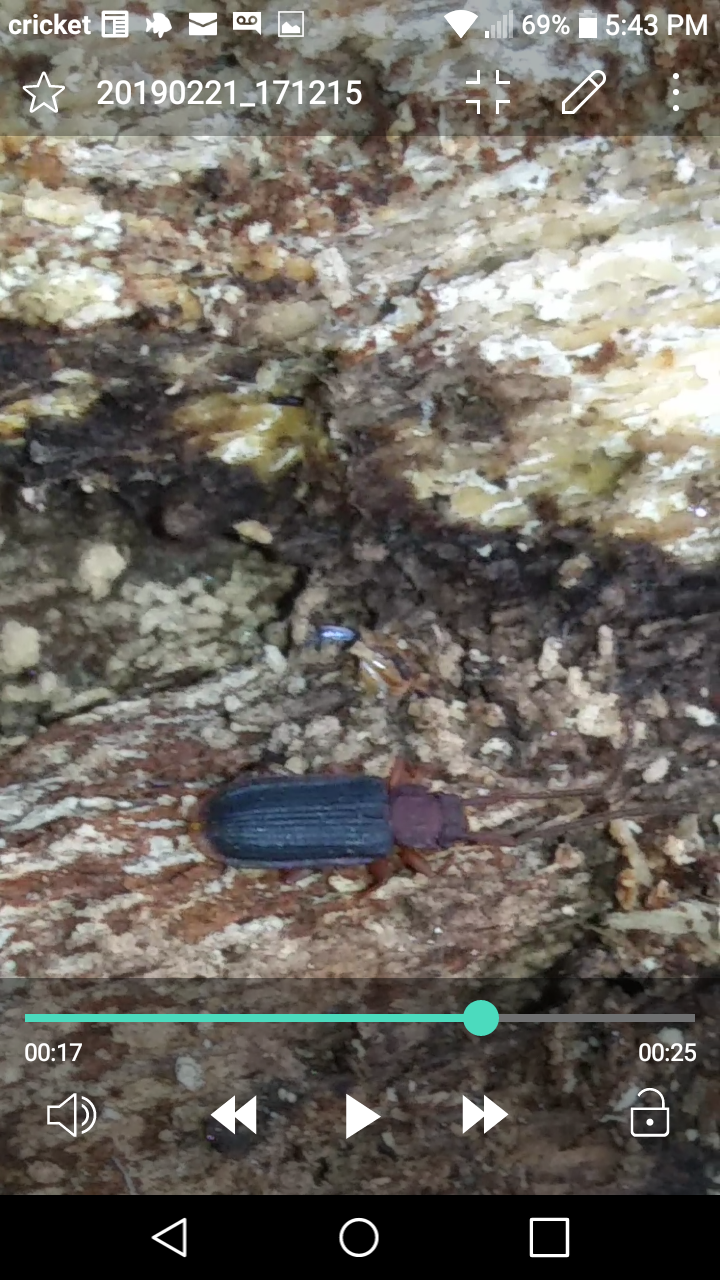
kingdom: Animalia
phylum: Arthropoda
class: Insecta
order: Coleoptera
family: Silvanidae
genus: Uleiota
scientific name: Uleiota dubia
